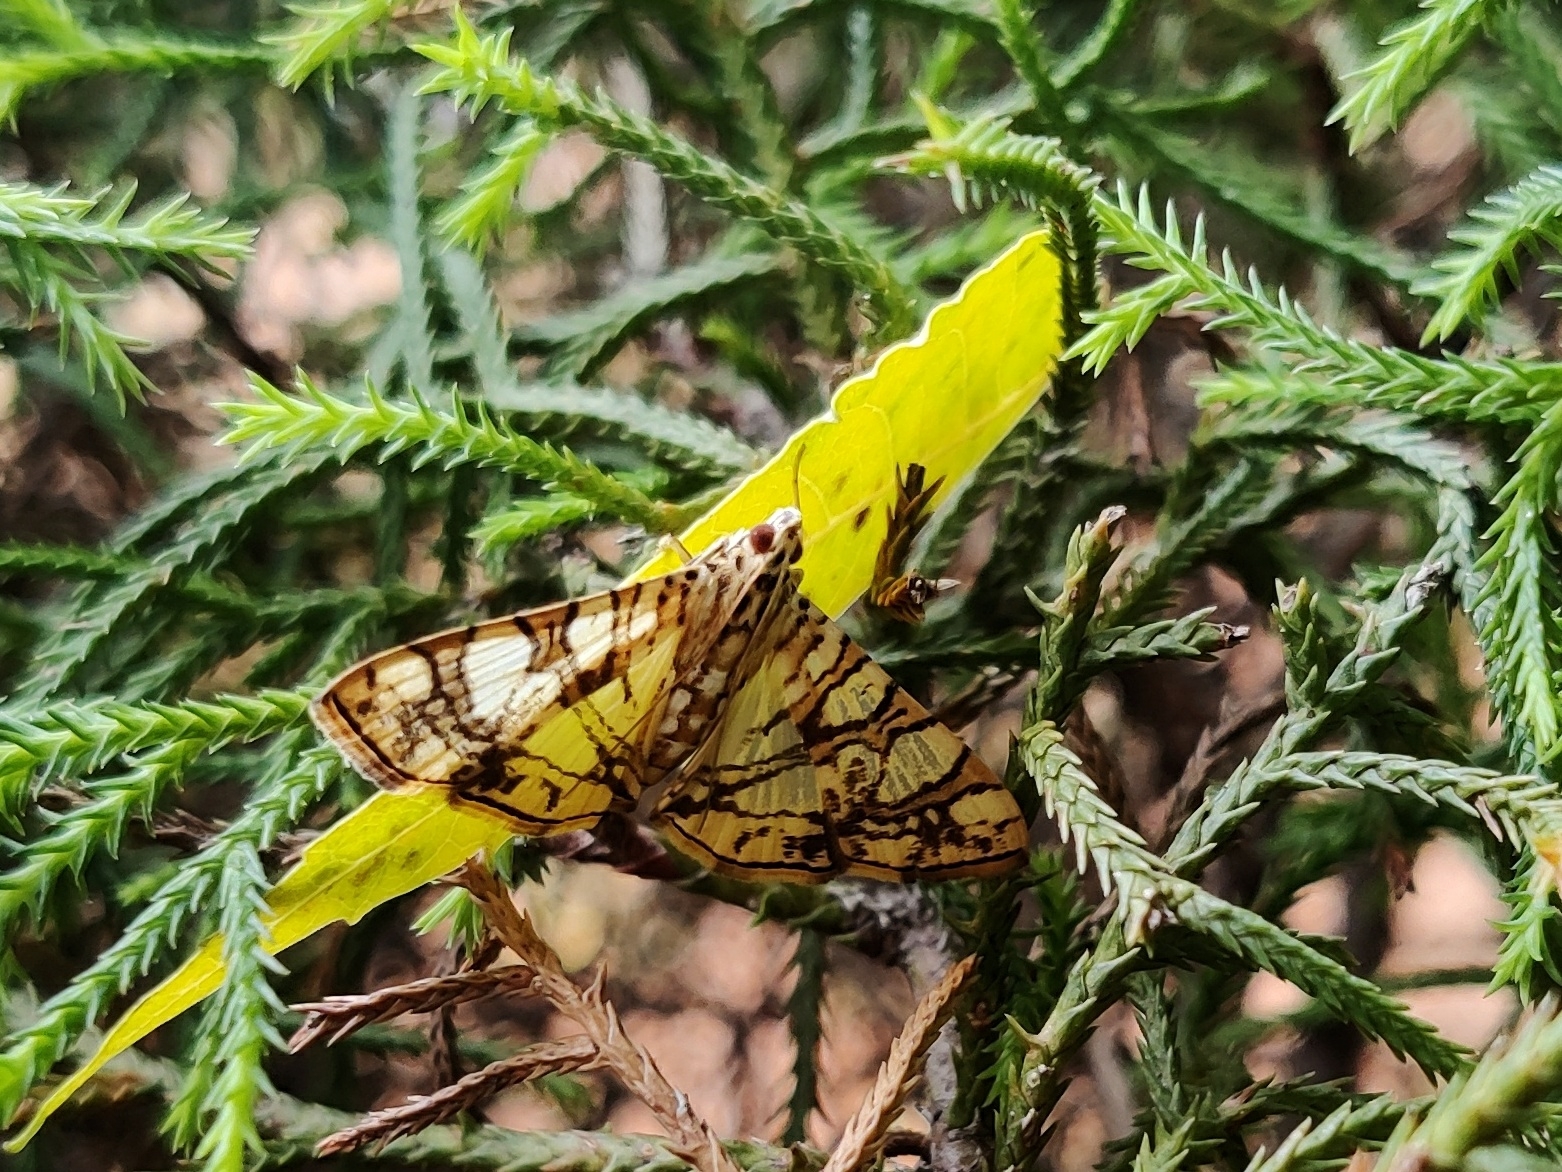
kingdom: Animalia
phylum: Arthropoda
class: Insecta
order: Lepidoptera
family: Crambidae
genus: Glyphodes
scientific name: Glyphodes caesalis
